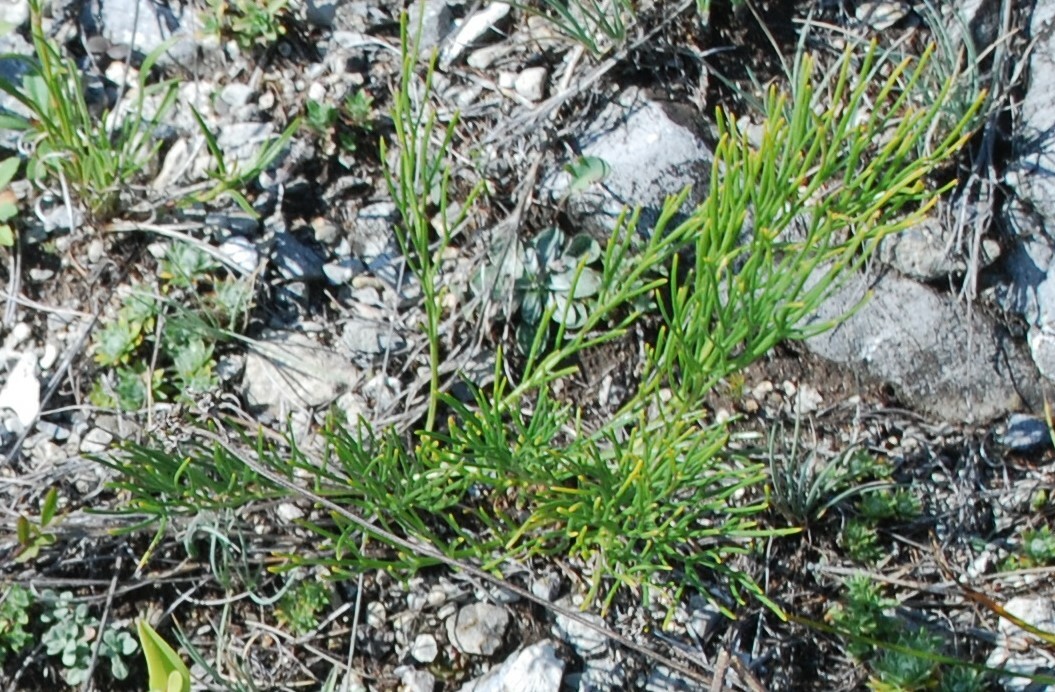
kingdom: Plantae
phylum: Tracheophyta
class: Magnoliopsida
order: Asterales
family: Asteraceae
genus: Filifolium
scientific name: Filifolium sibiricum
